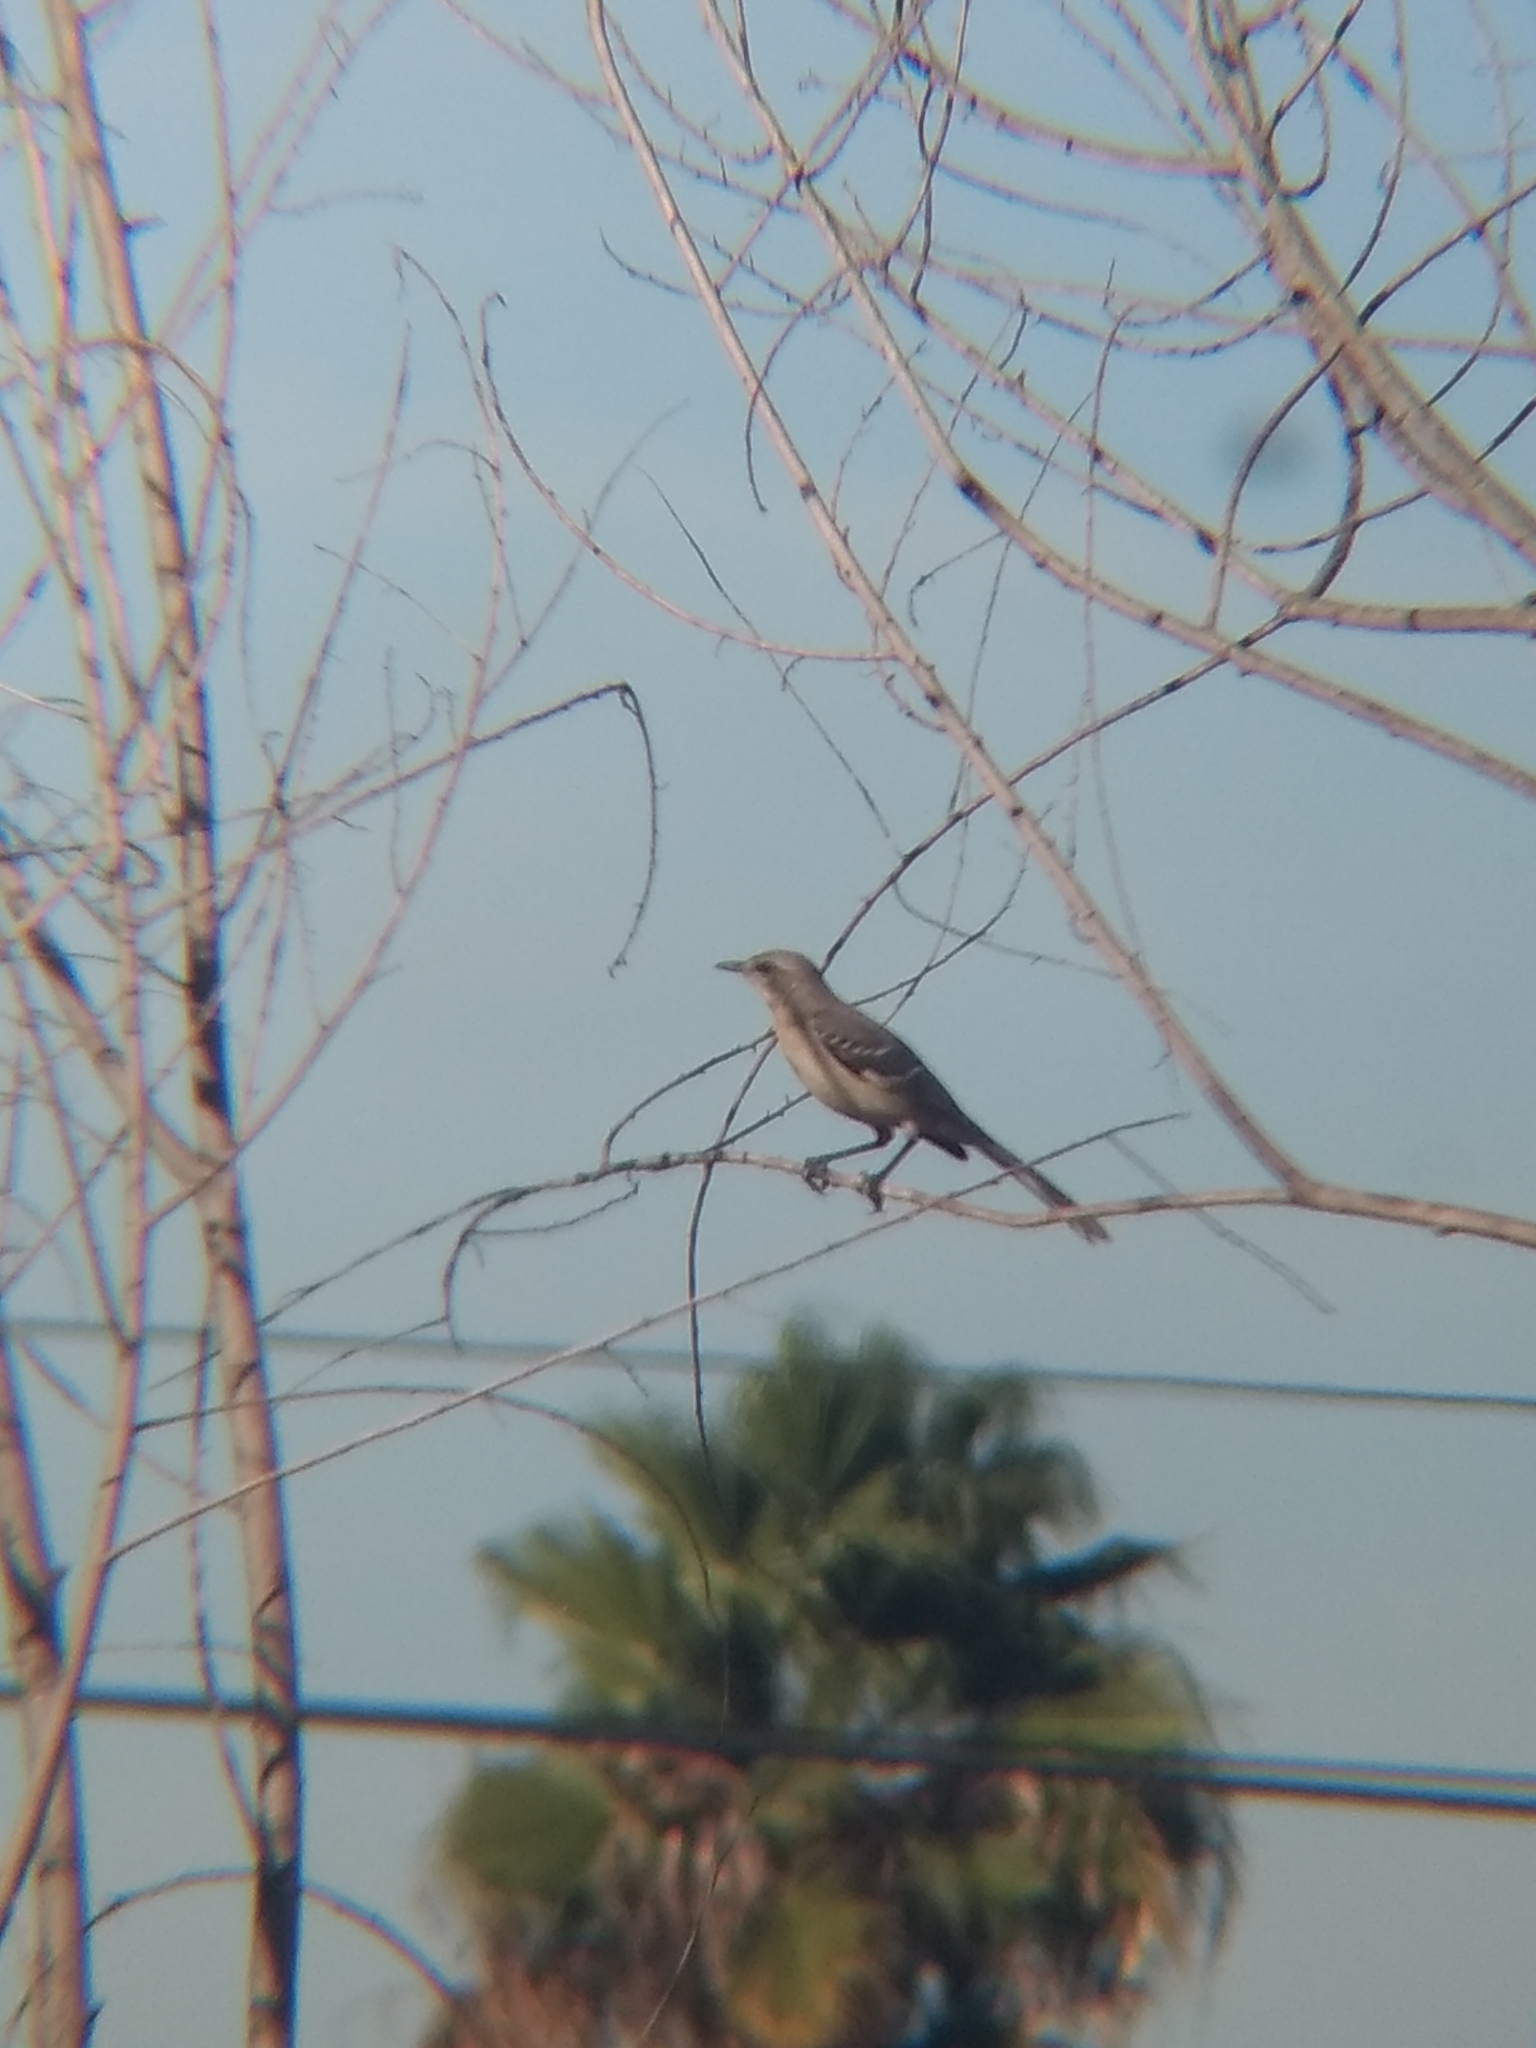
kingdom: Animalia
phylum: Chordata
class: Aves
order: Passeriformes
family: Mimidae
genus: Mimus
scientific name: Mimus polyglottos
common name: Northern mockingbird
